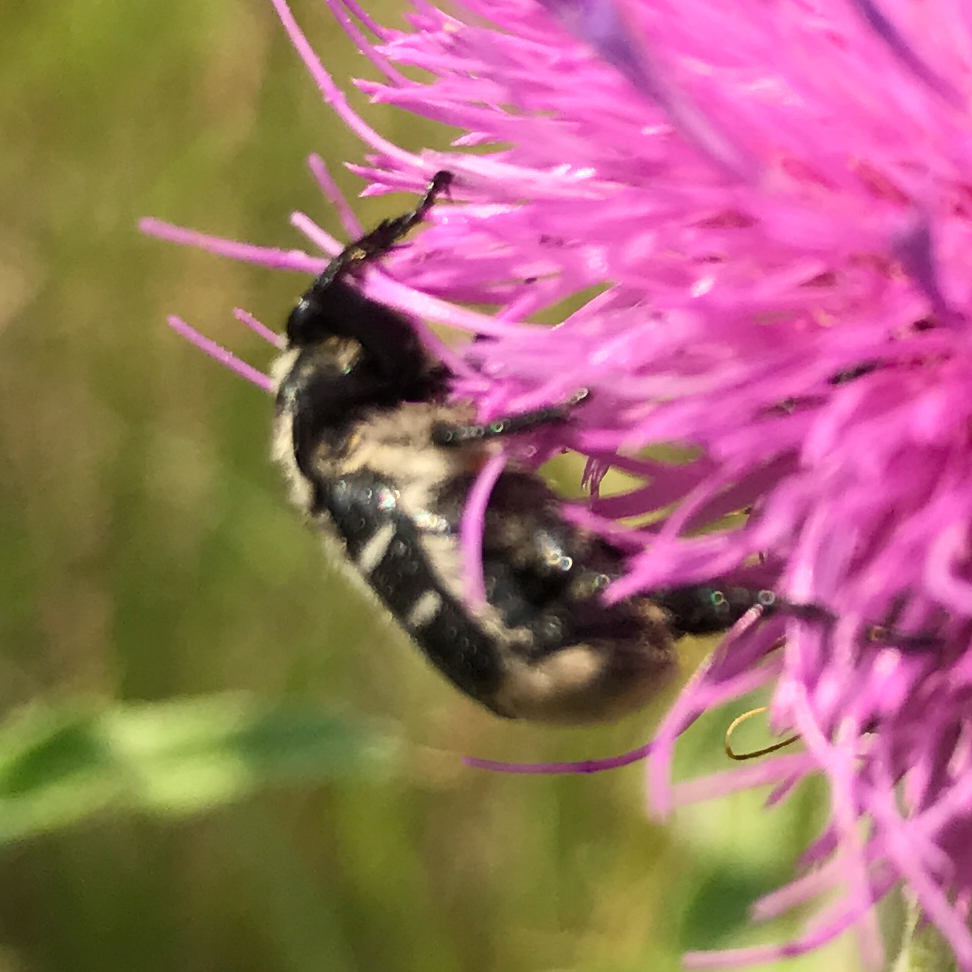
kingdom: Animalia
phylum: Arthropoda
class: Insecta
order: Coleoptera
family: Scarabaeidae
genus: Trichiotinus
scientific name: Trichiotinus texanus
